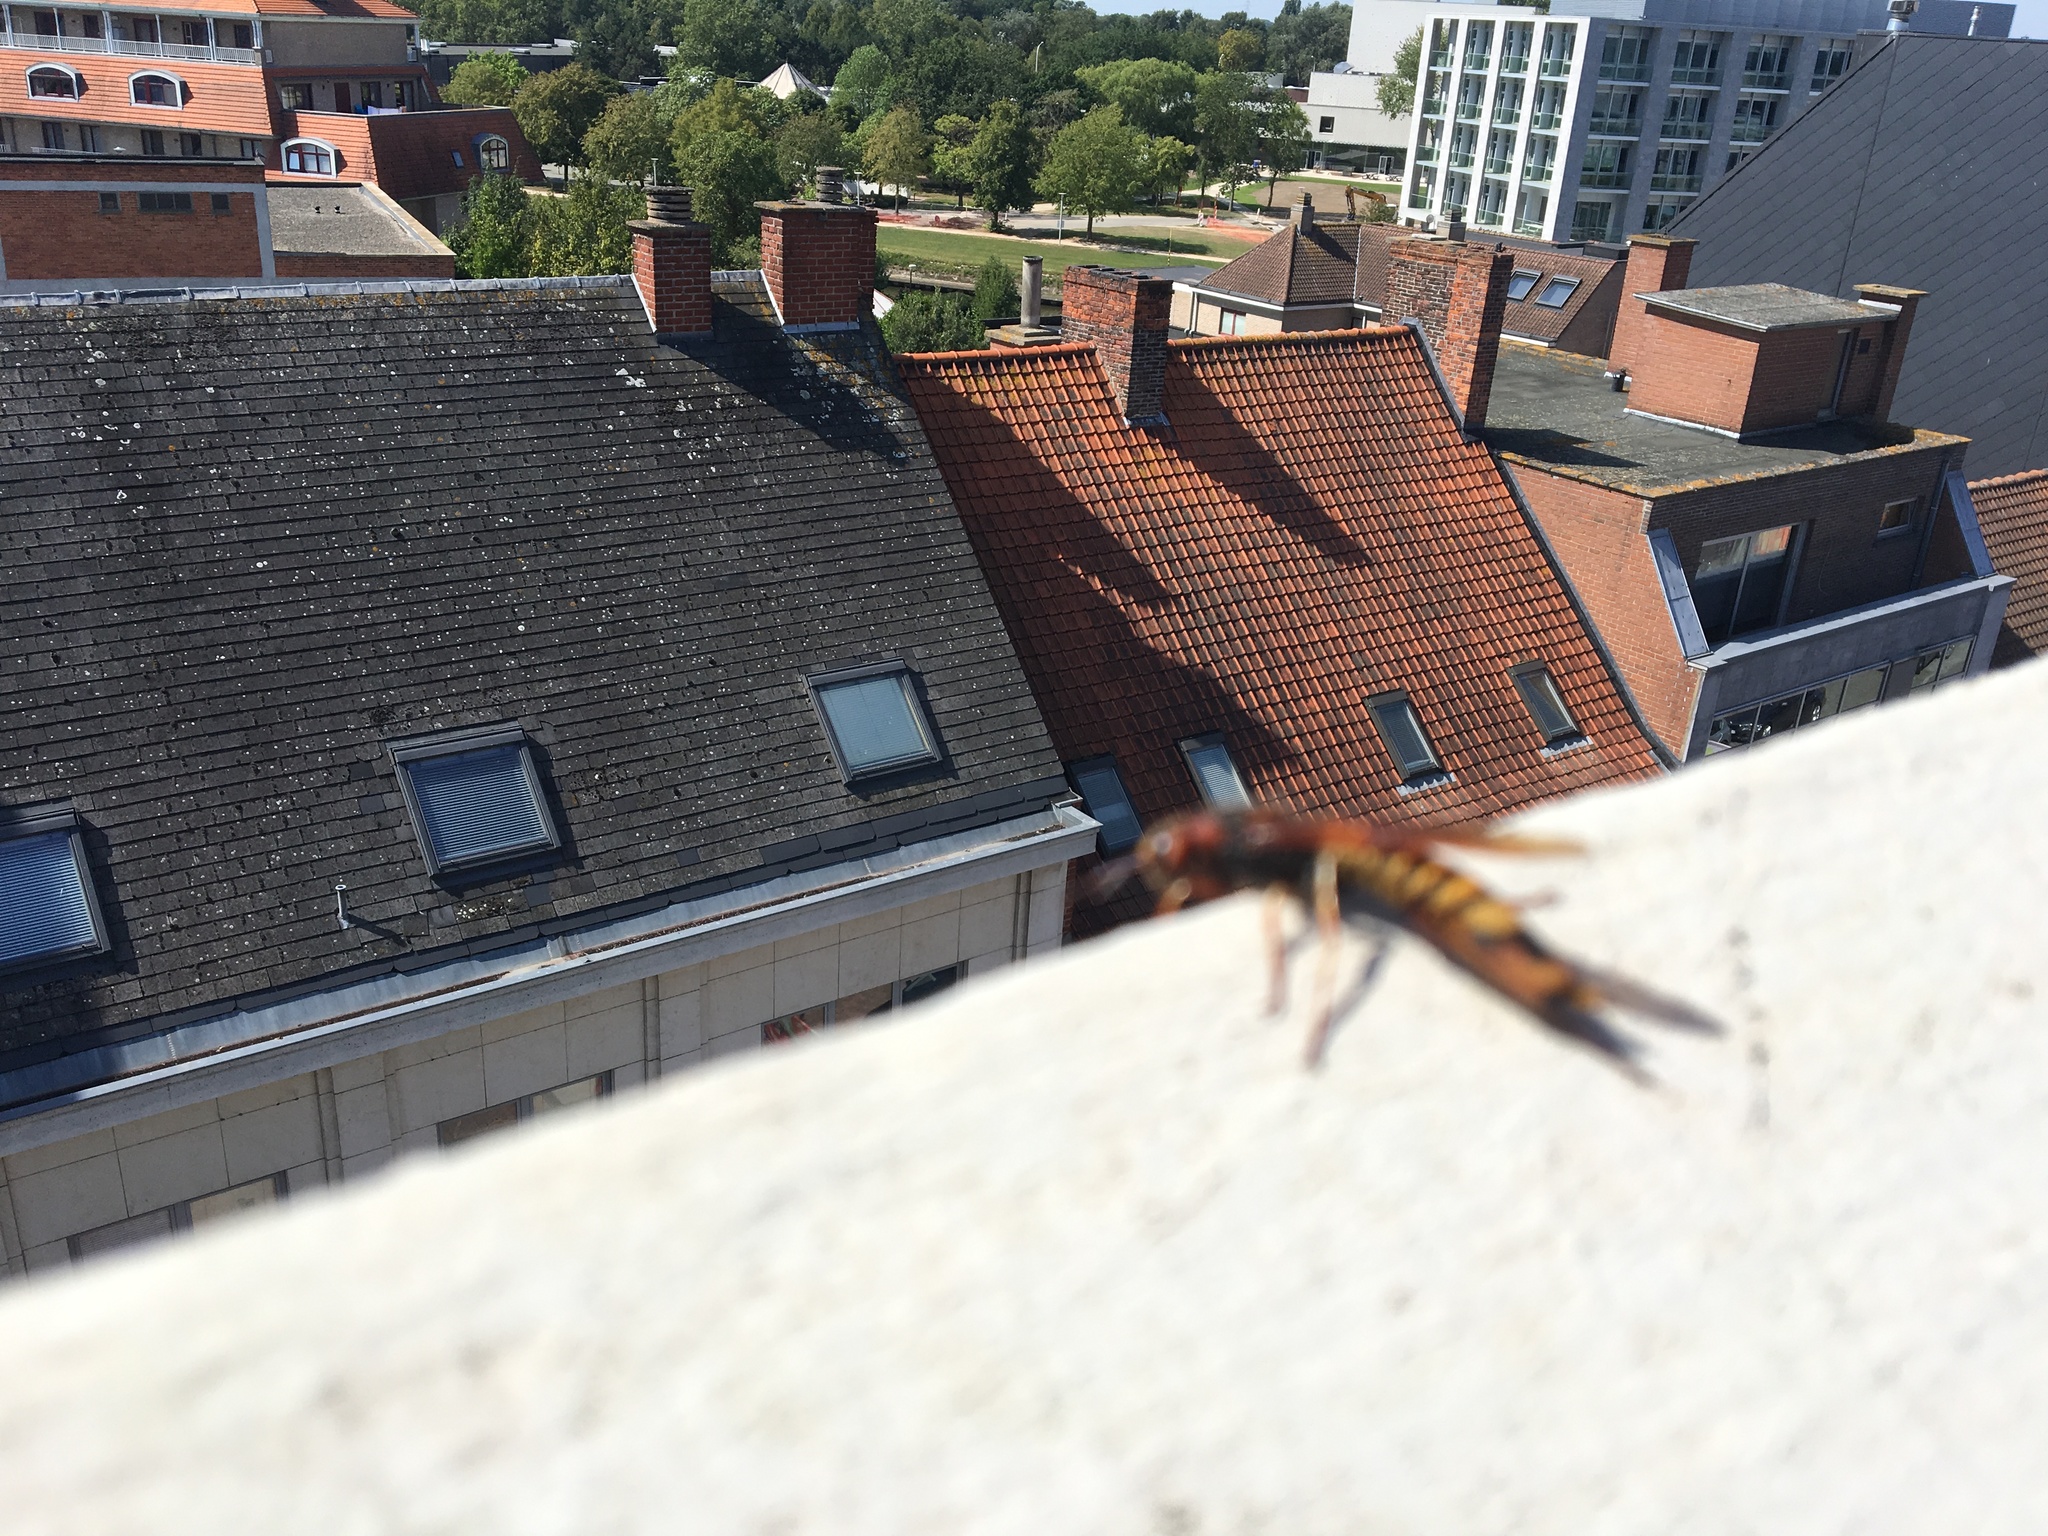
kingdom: Animalia
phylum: Arthropoda
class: Insecta
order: Hymenoptera
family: Siricidae
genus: Tremex
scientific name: Tremex fuscicornis
